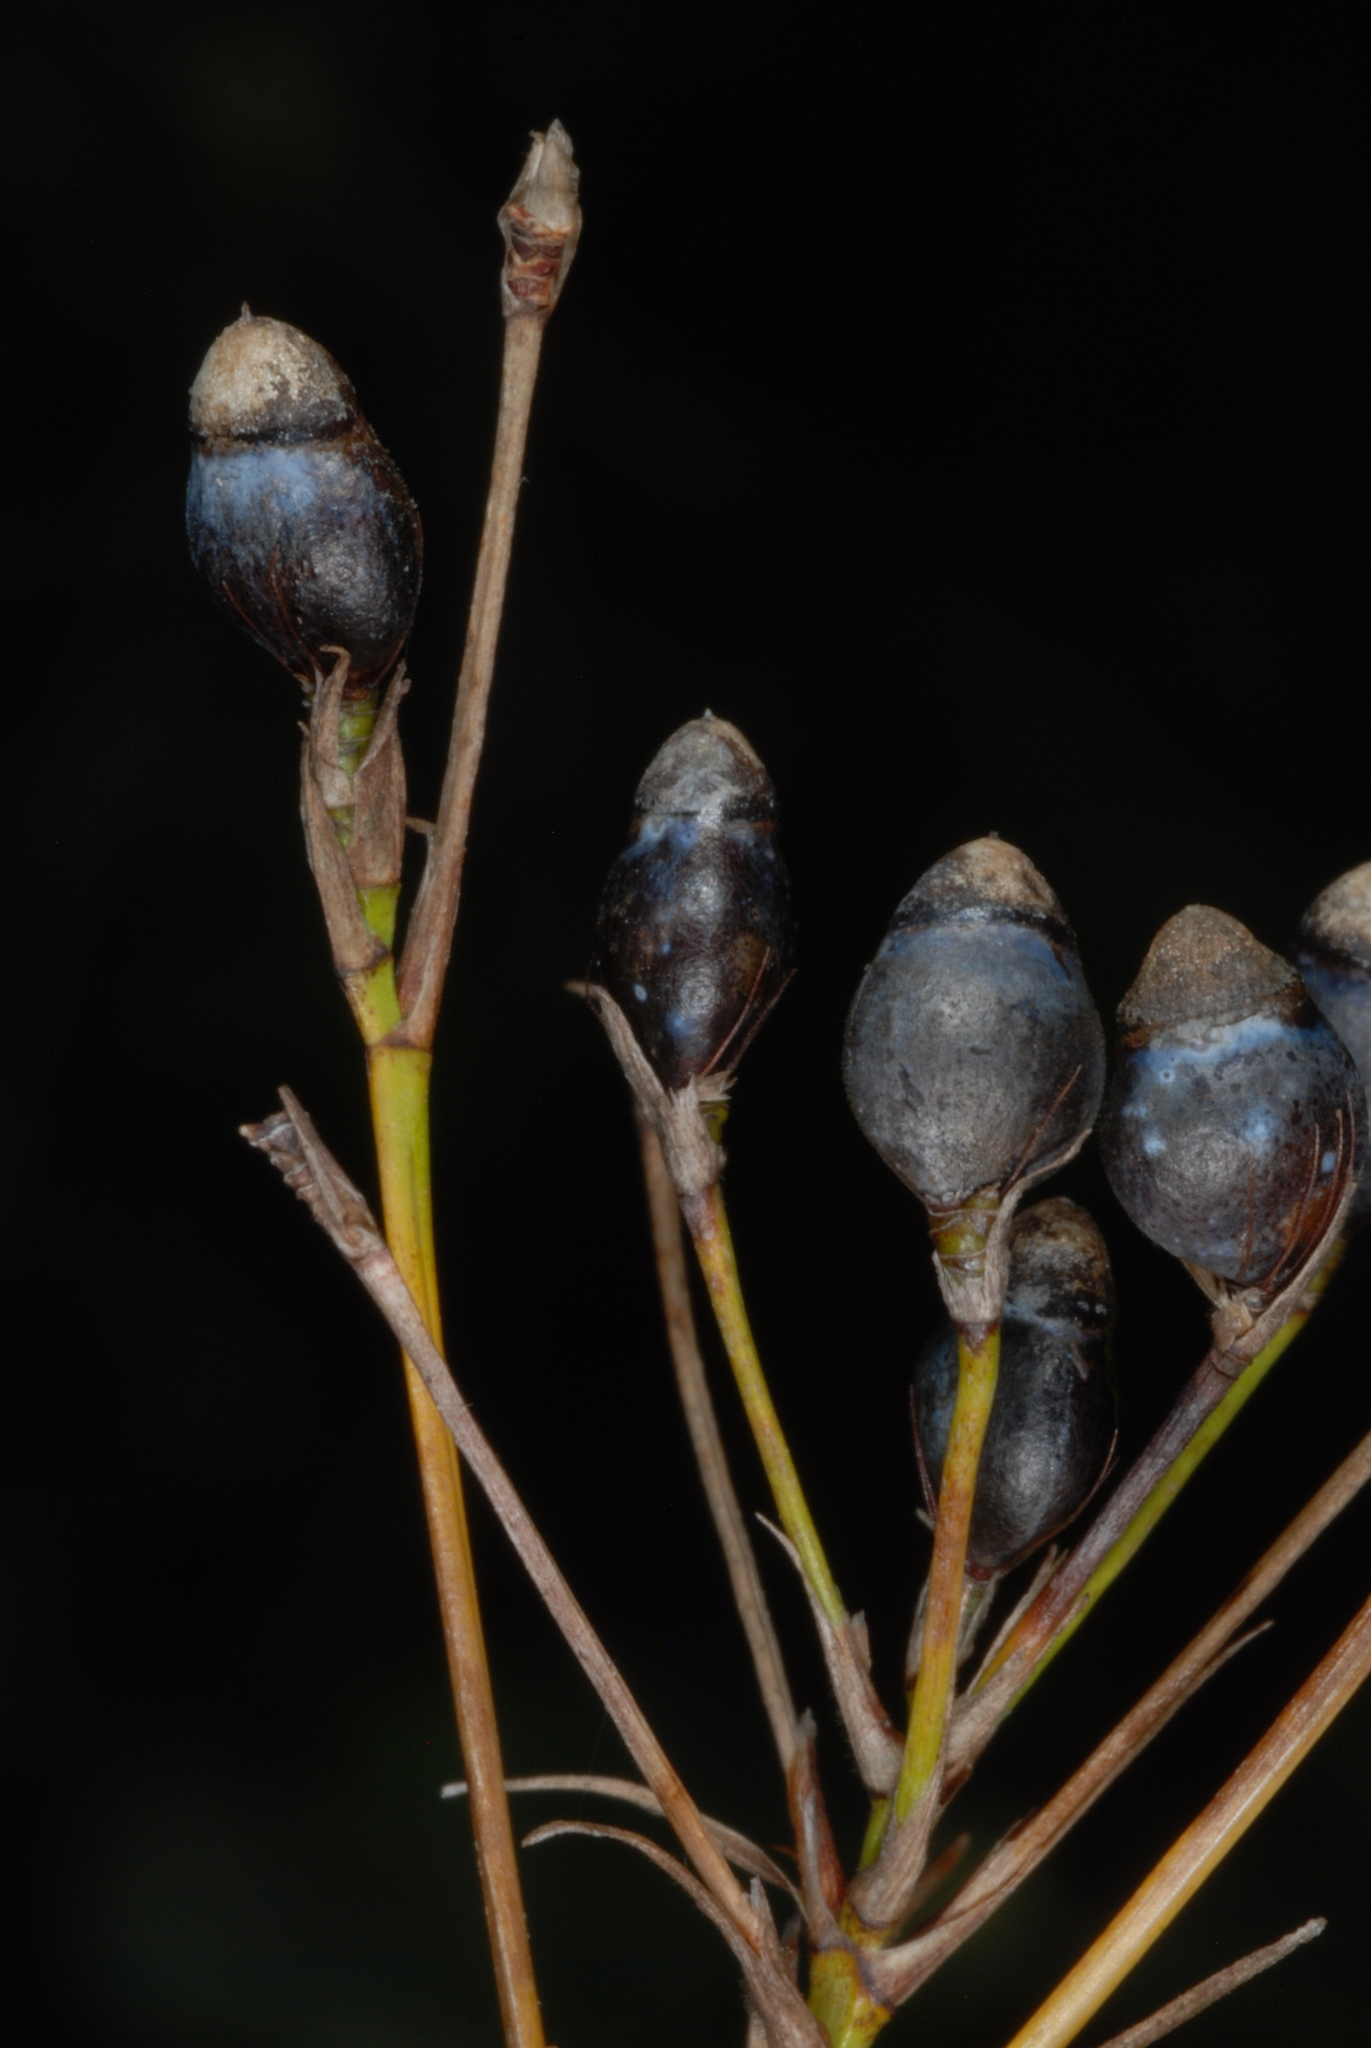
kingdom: Plantae
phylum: Tracheophyta
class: Liliopsida
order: Poales
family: Cyperaceae
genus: Rhynchospora
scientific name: Rhynchospora megalocarpa
